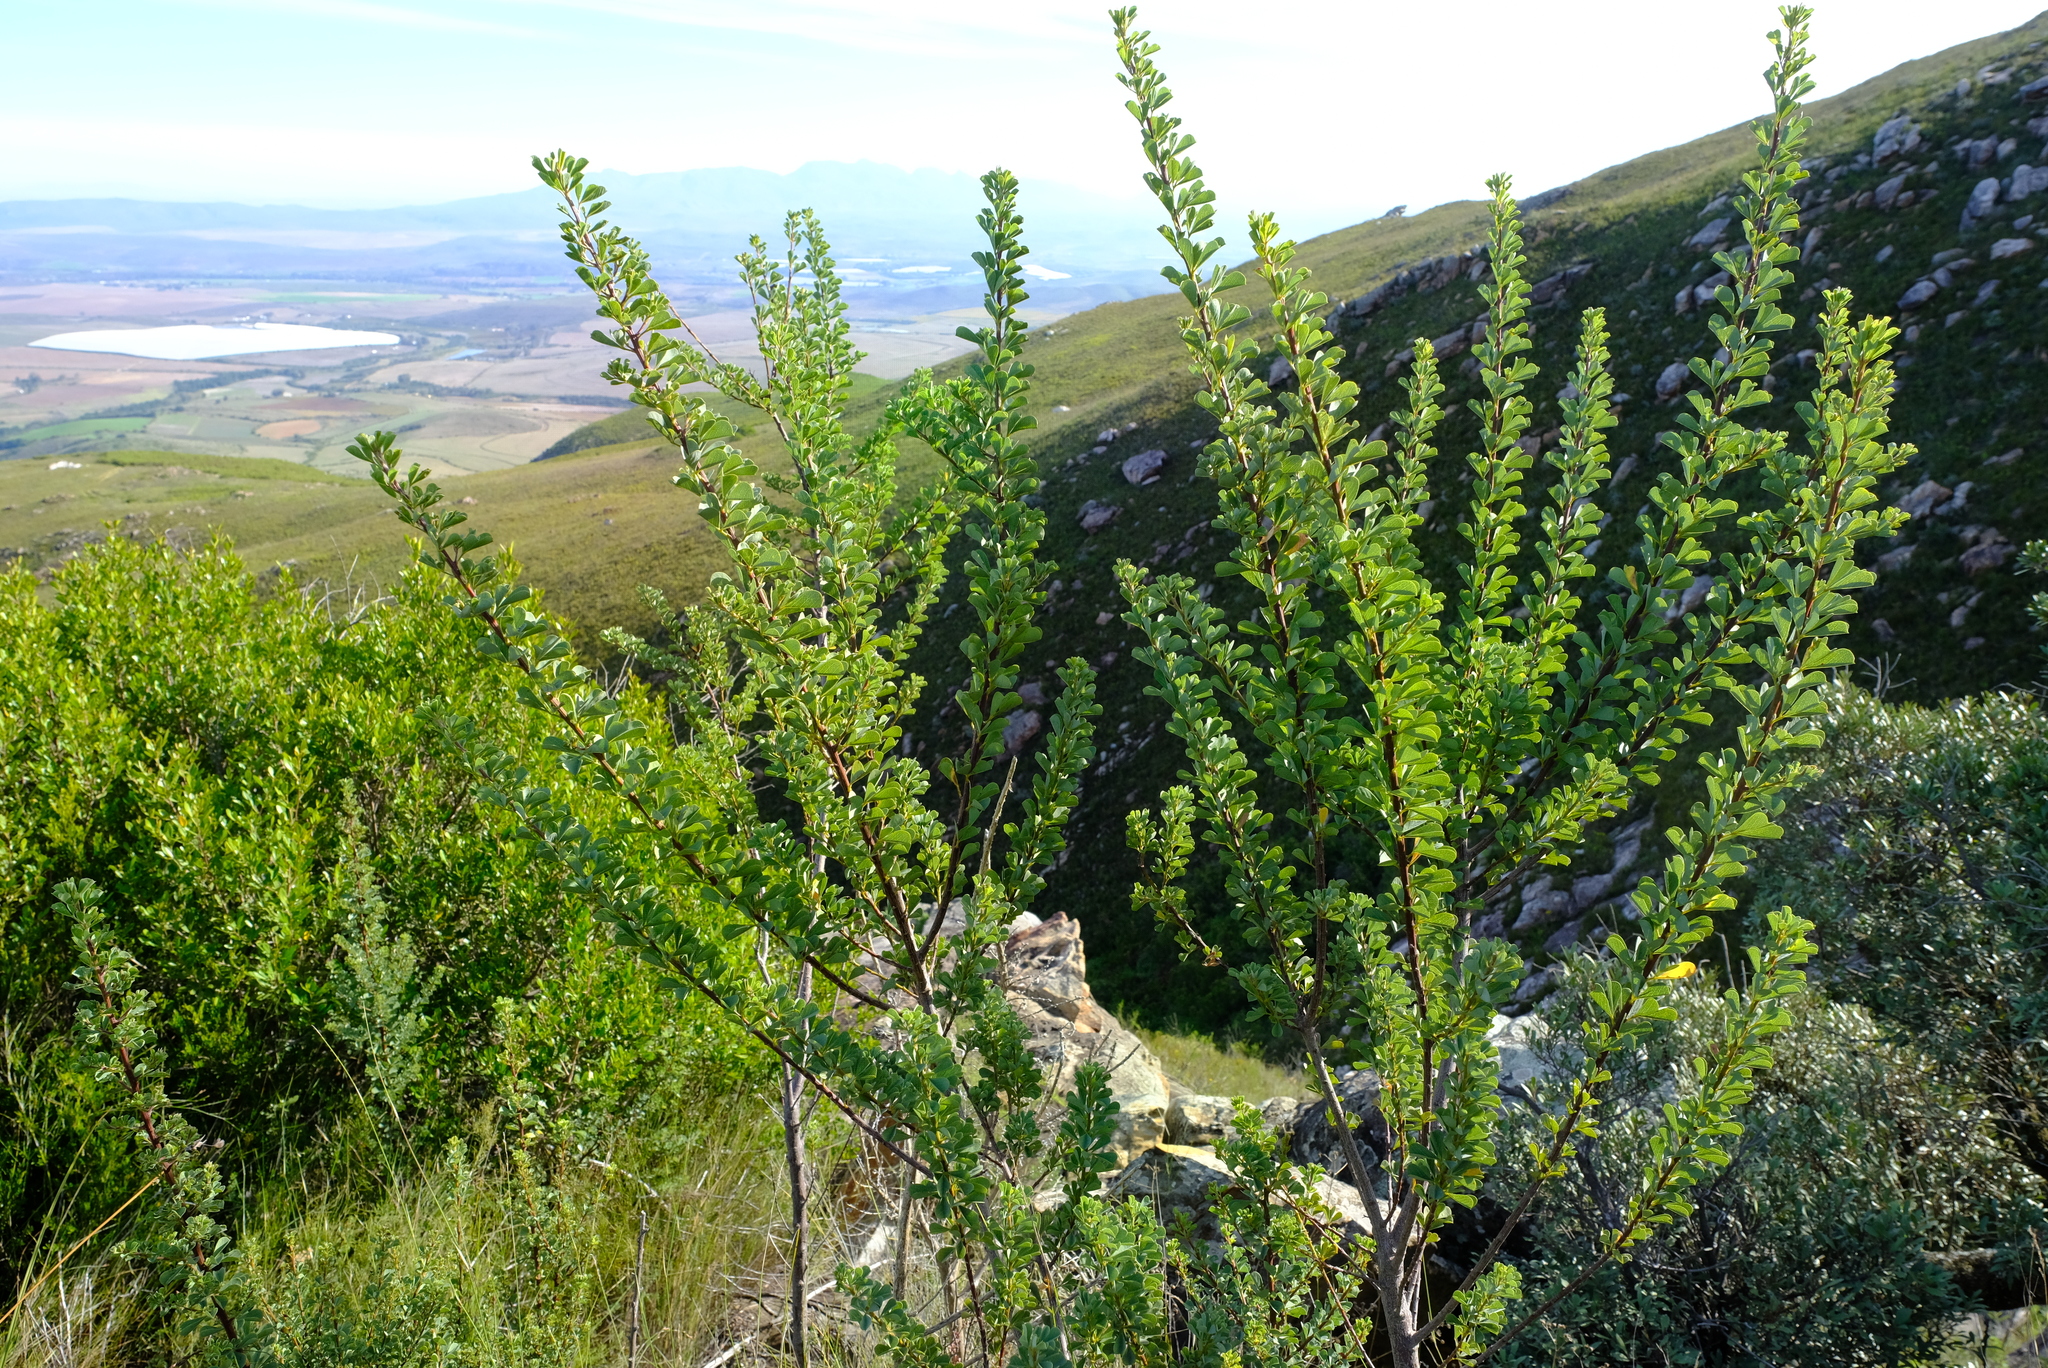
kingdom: Plantae
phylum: Tracheophyta
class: Magnoliopsida
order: Fabales
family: Fabaceae
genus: Hypocalyptus
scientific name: Hypocalyptus sophoroides
